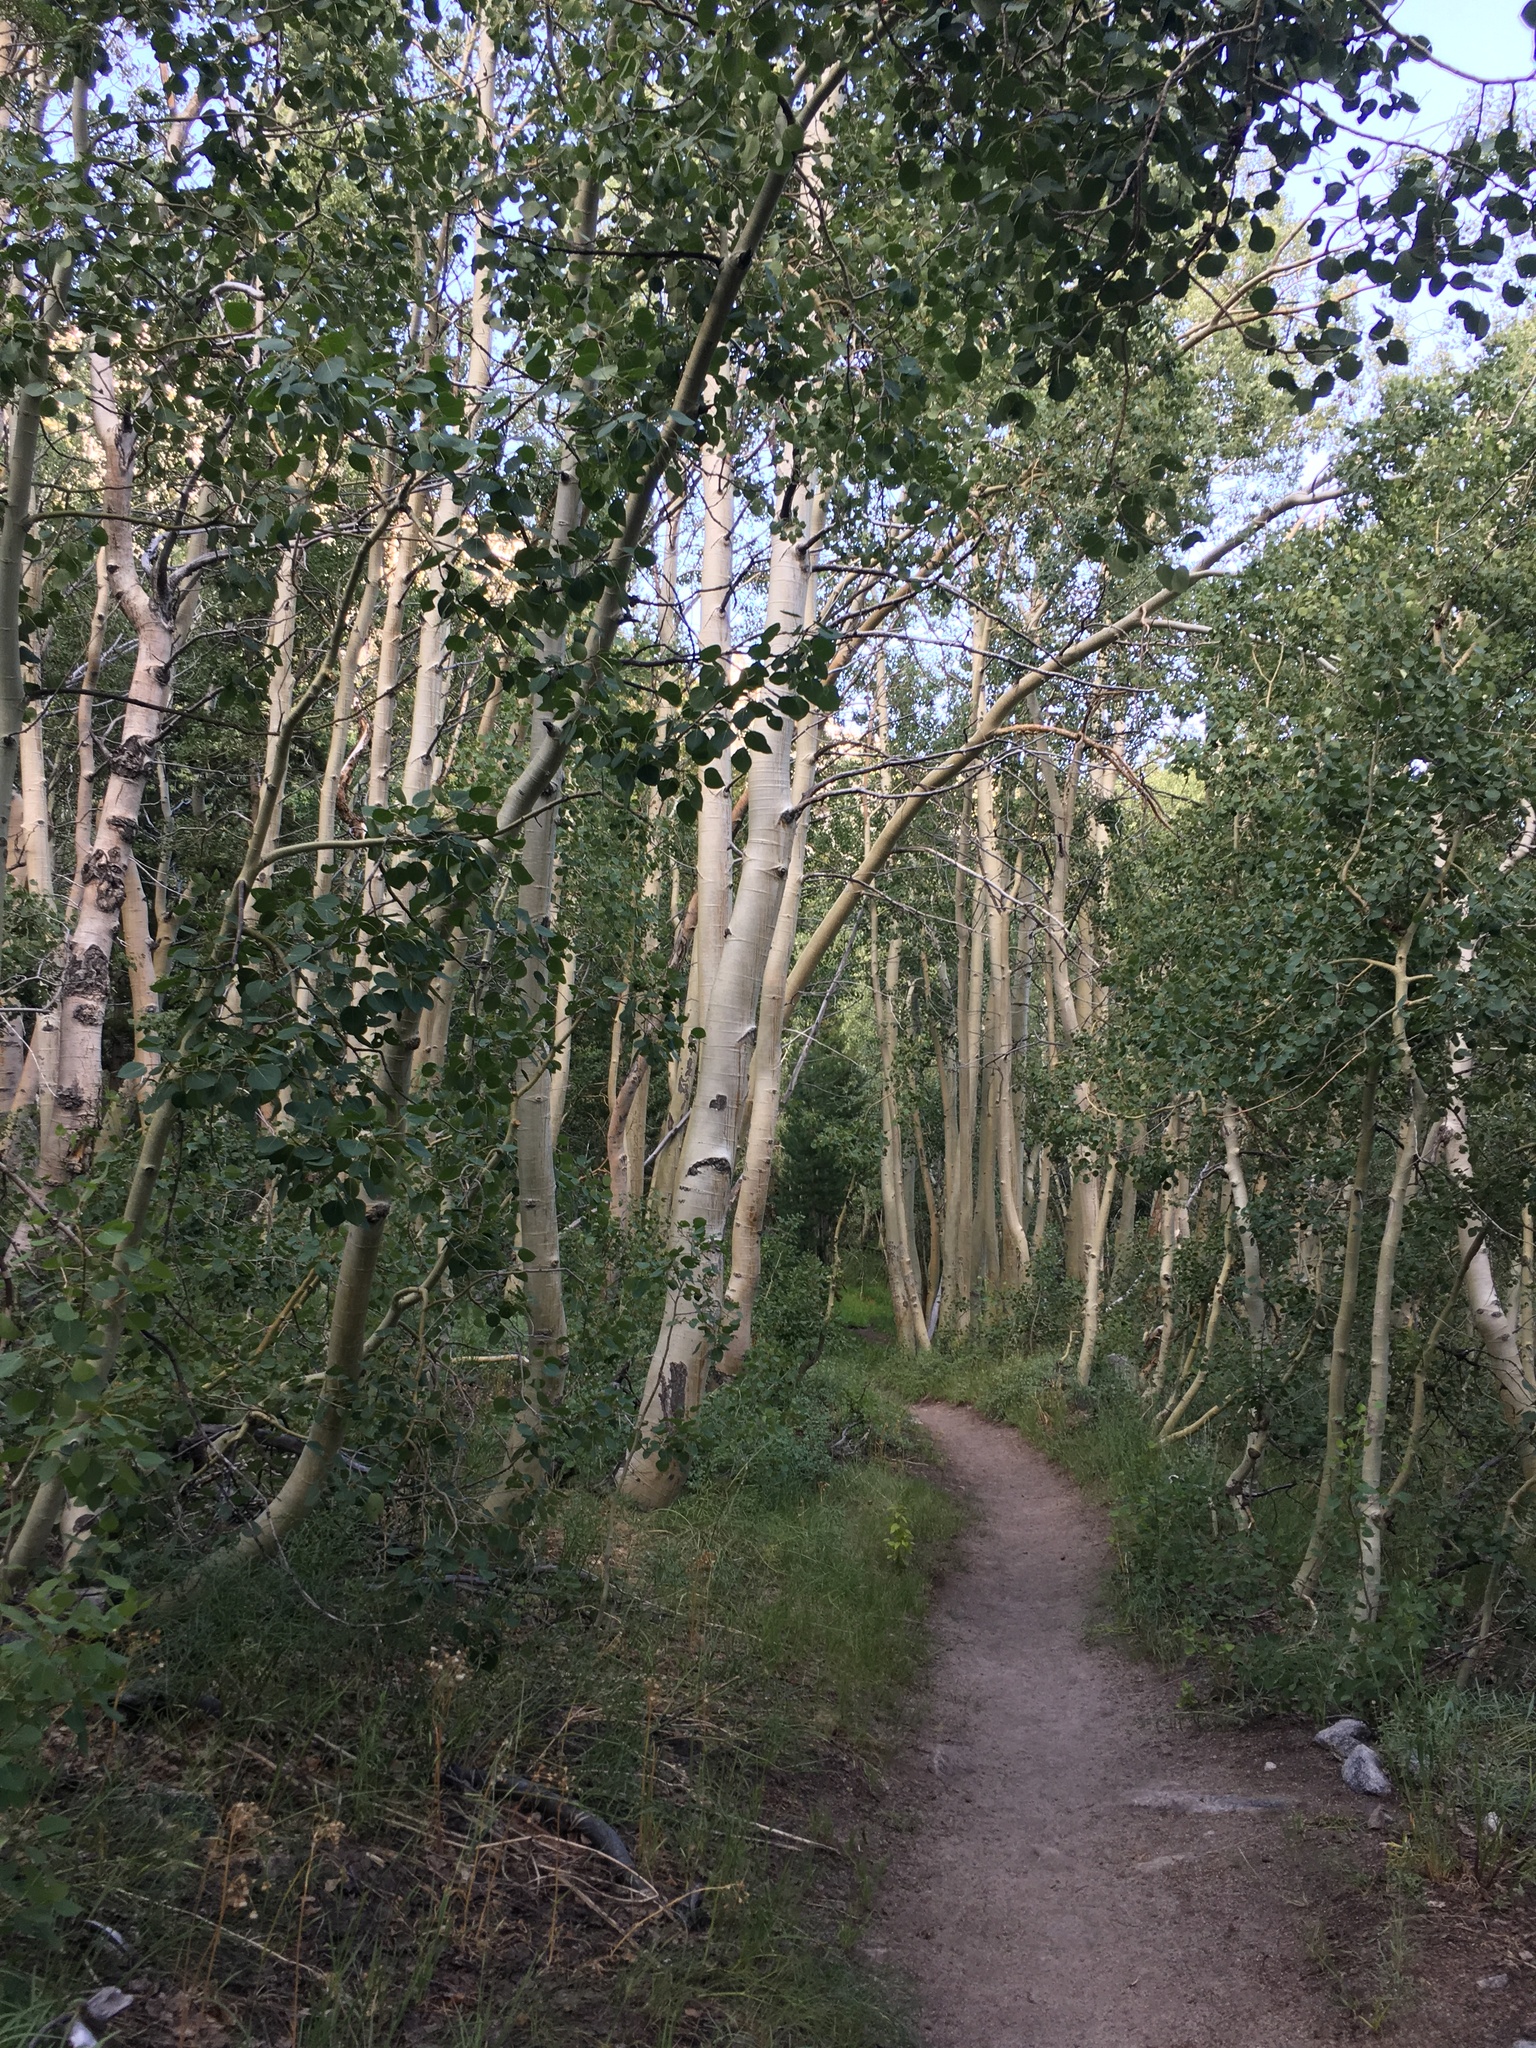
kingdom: Plantae
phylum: Tracheophyta
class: Magnoliopsida
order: Malpighiales
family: Salicaceae
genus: Populus
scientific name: Populus tremuloides
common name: Quaking aspen
